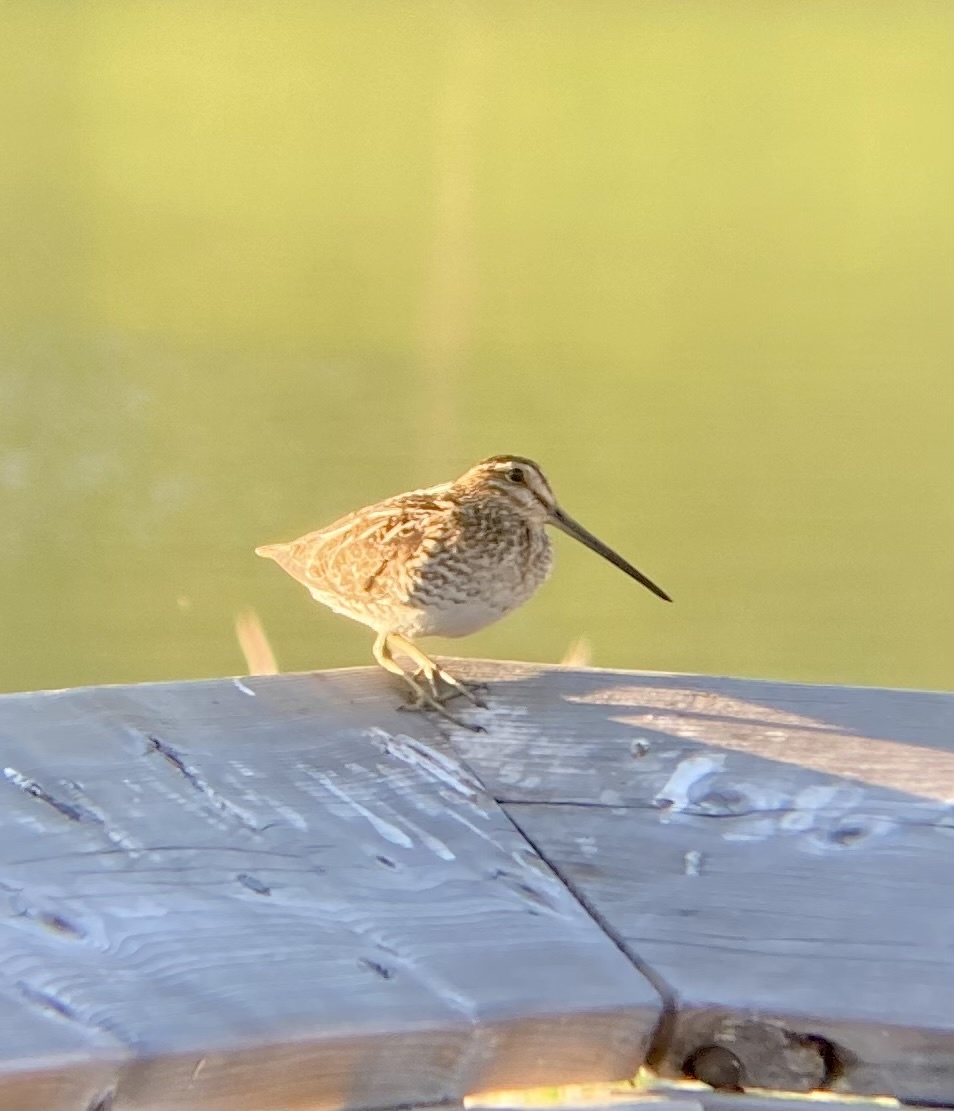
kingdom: Animalia
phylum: Chordata
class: Aves
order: Charadriiformes
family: Scolopacidae
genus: Gallinago
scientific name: Gallinago delicata
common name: Wilson's snipe
